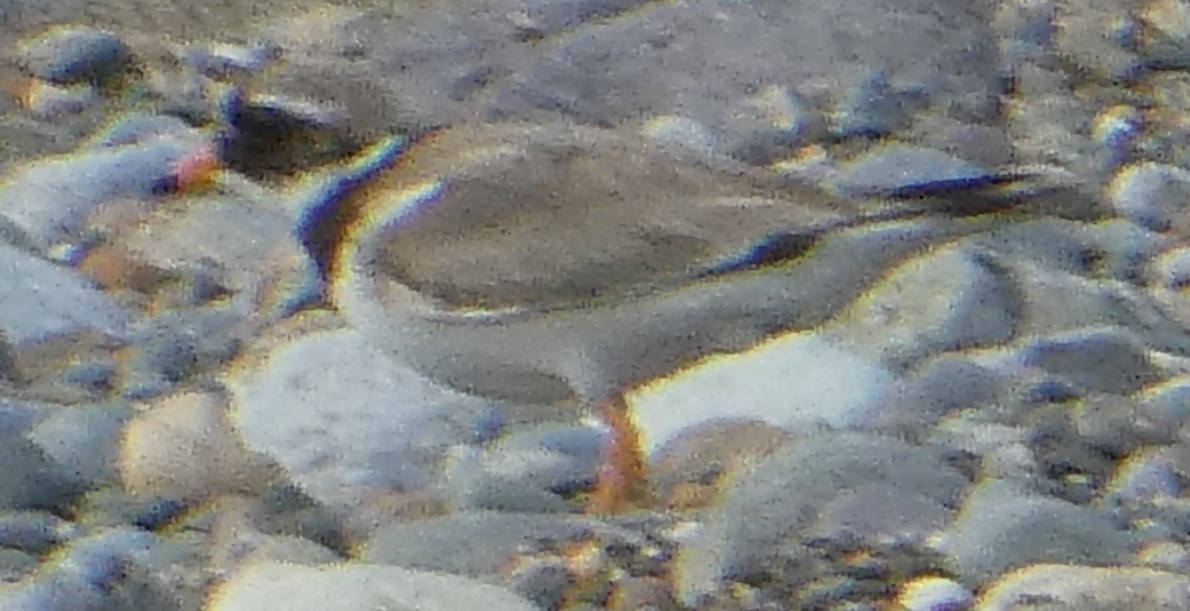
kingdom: Animalia
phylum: Chordata
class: Aves
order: Charadriiformes
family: Charadriidae
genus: Charadrius
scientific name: Charadrius hiaticula
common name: Common ringed plover
